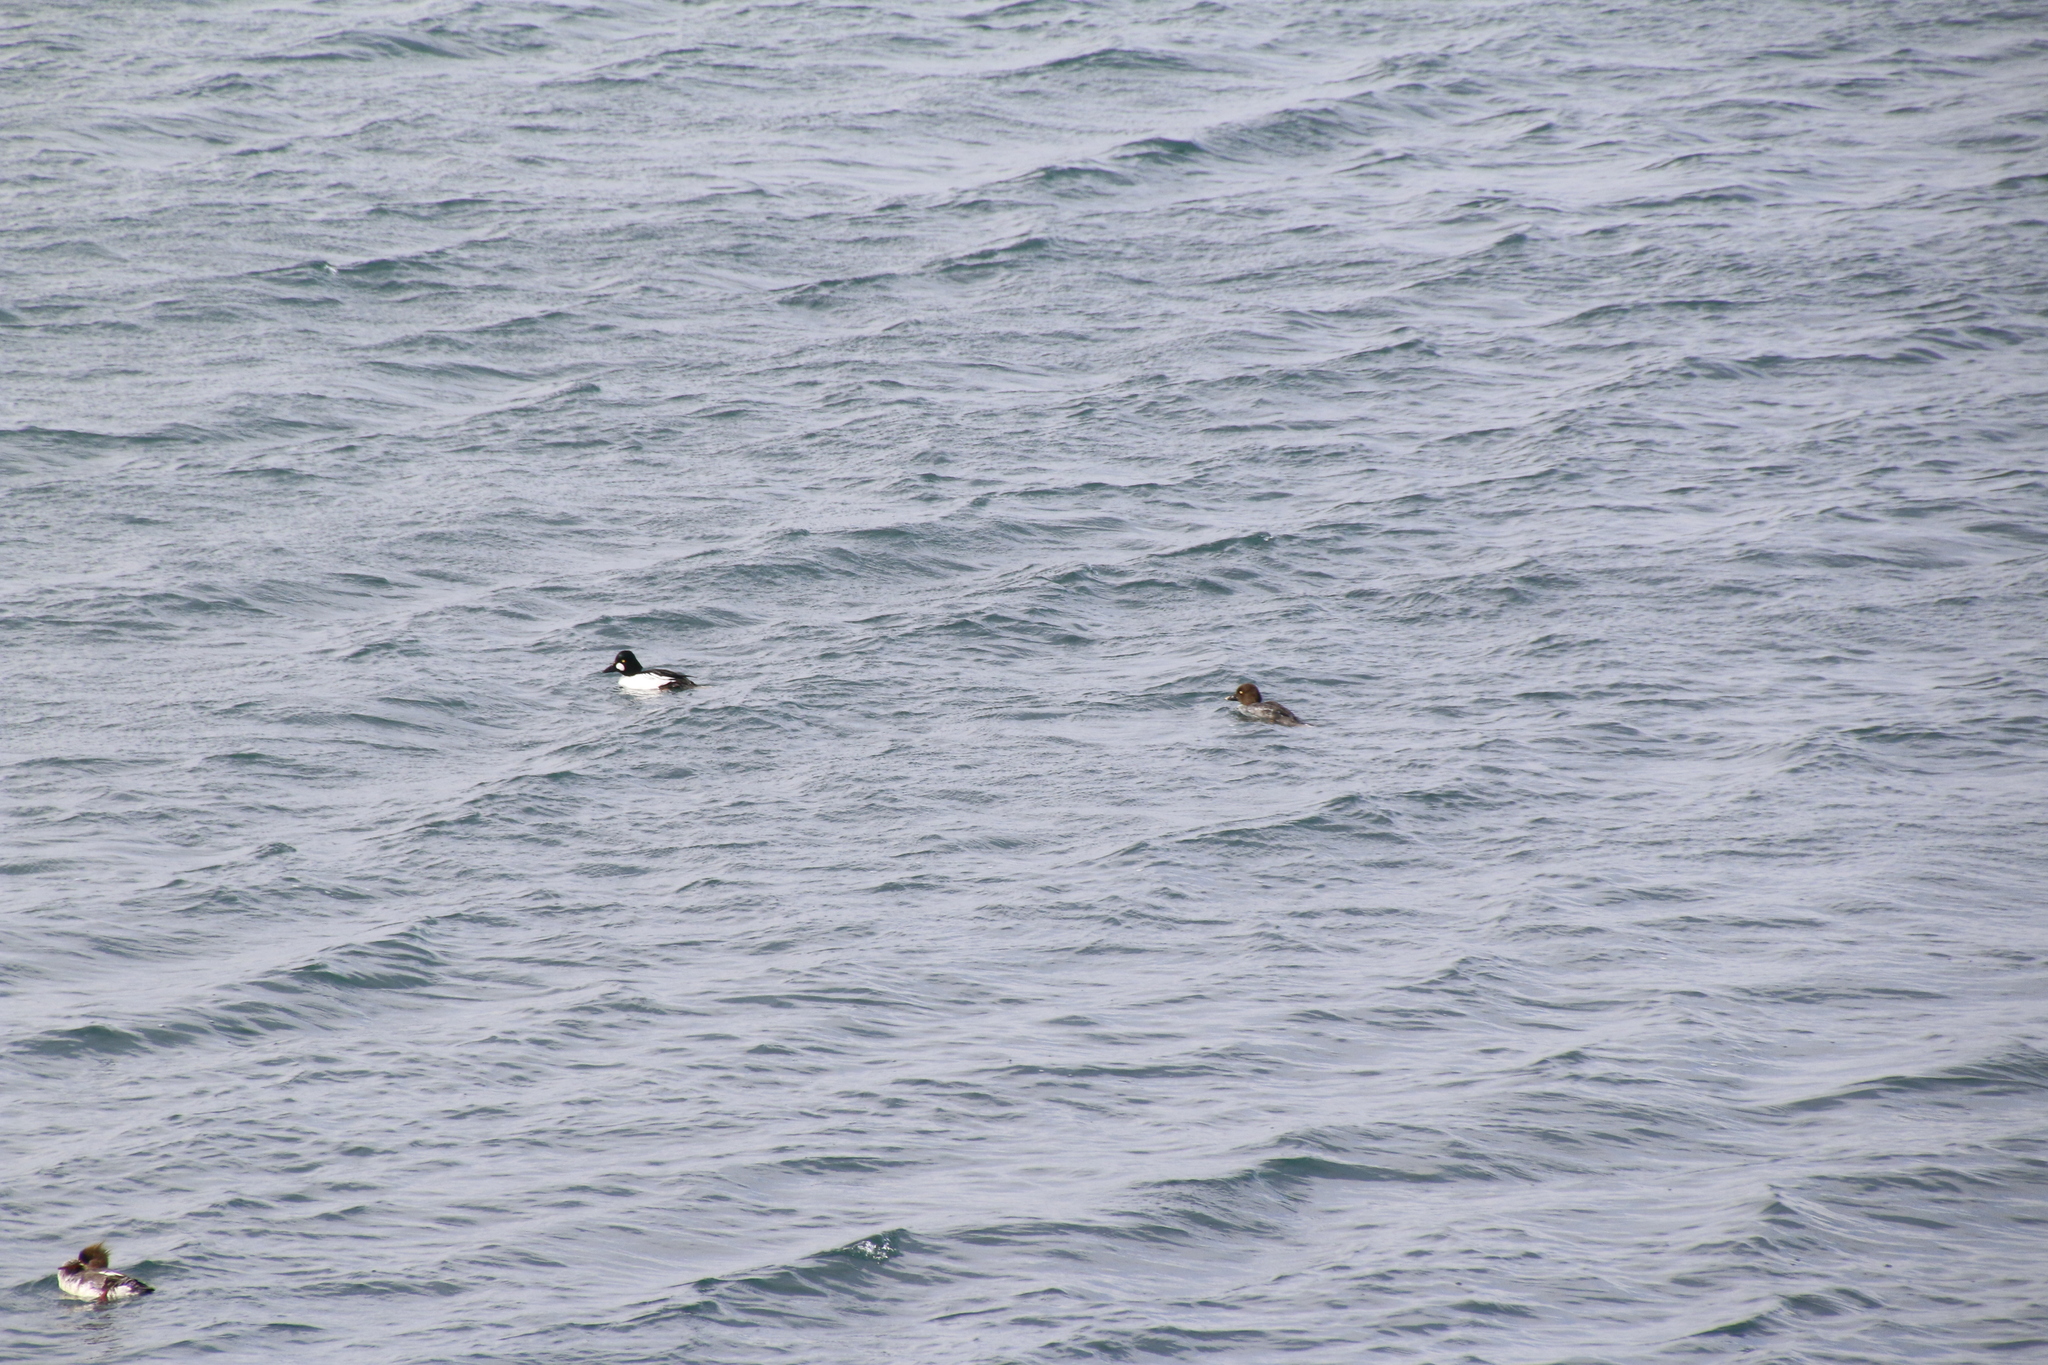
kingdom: Animalia
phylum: Chordata
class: Aves
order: Anseriformes
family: Anatidae
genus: Bucephala
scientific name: Bucephala clangula
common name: Common goldeneye
